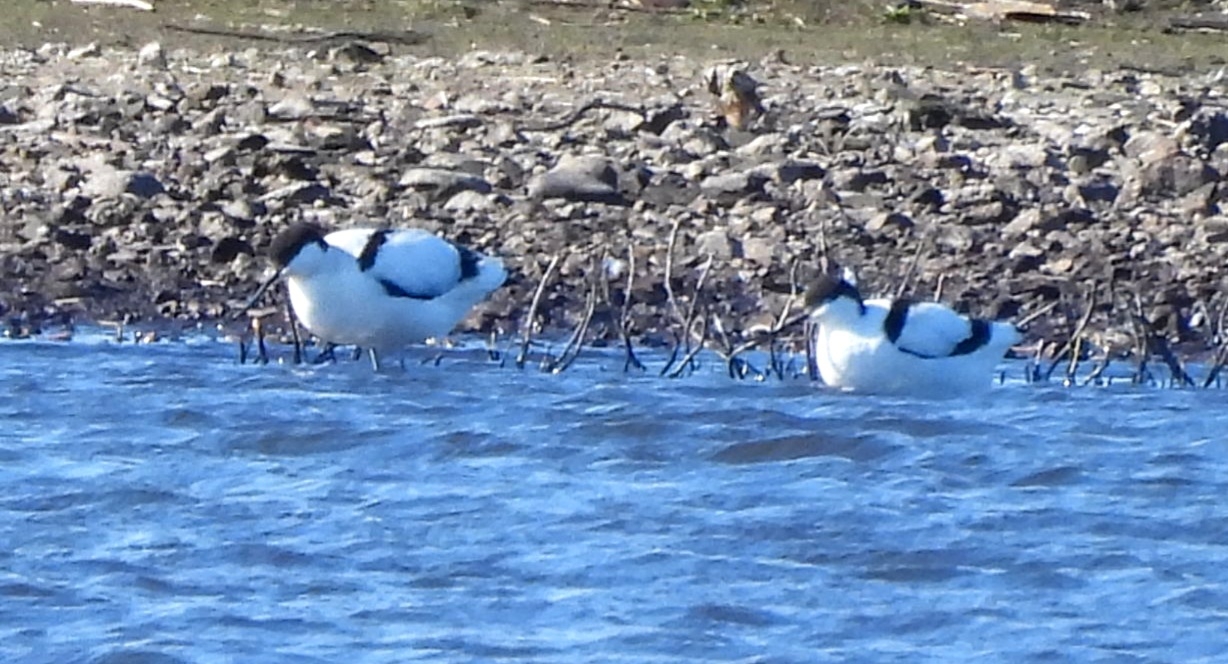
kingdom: Animalia
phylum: Chordata
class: Aves
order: Charadriiformes
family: Recurvirostridae
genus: Recurvirostra
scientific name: Recurvirostra avosetta
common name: Pied avocet
